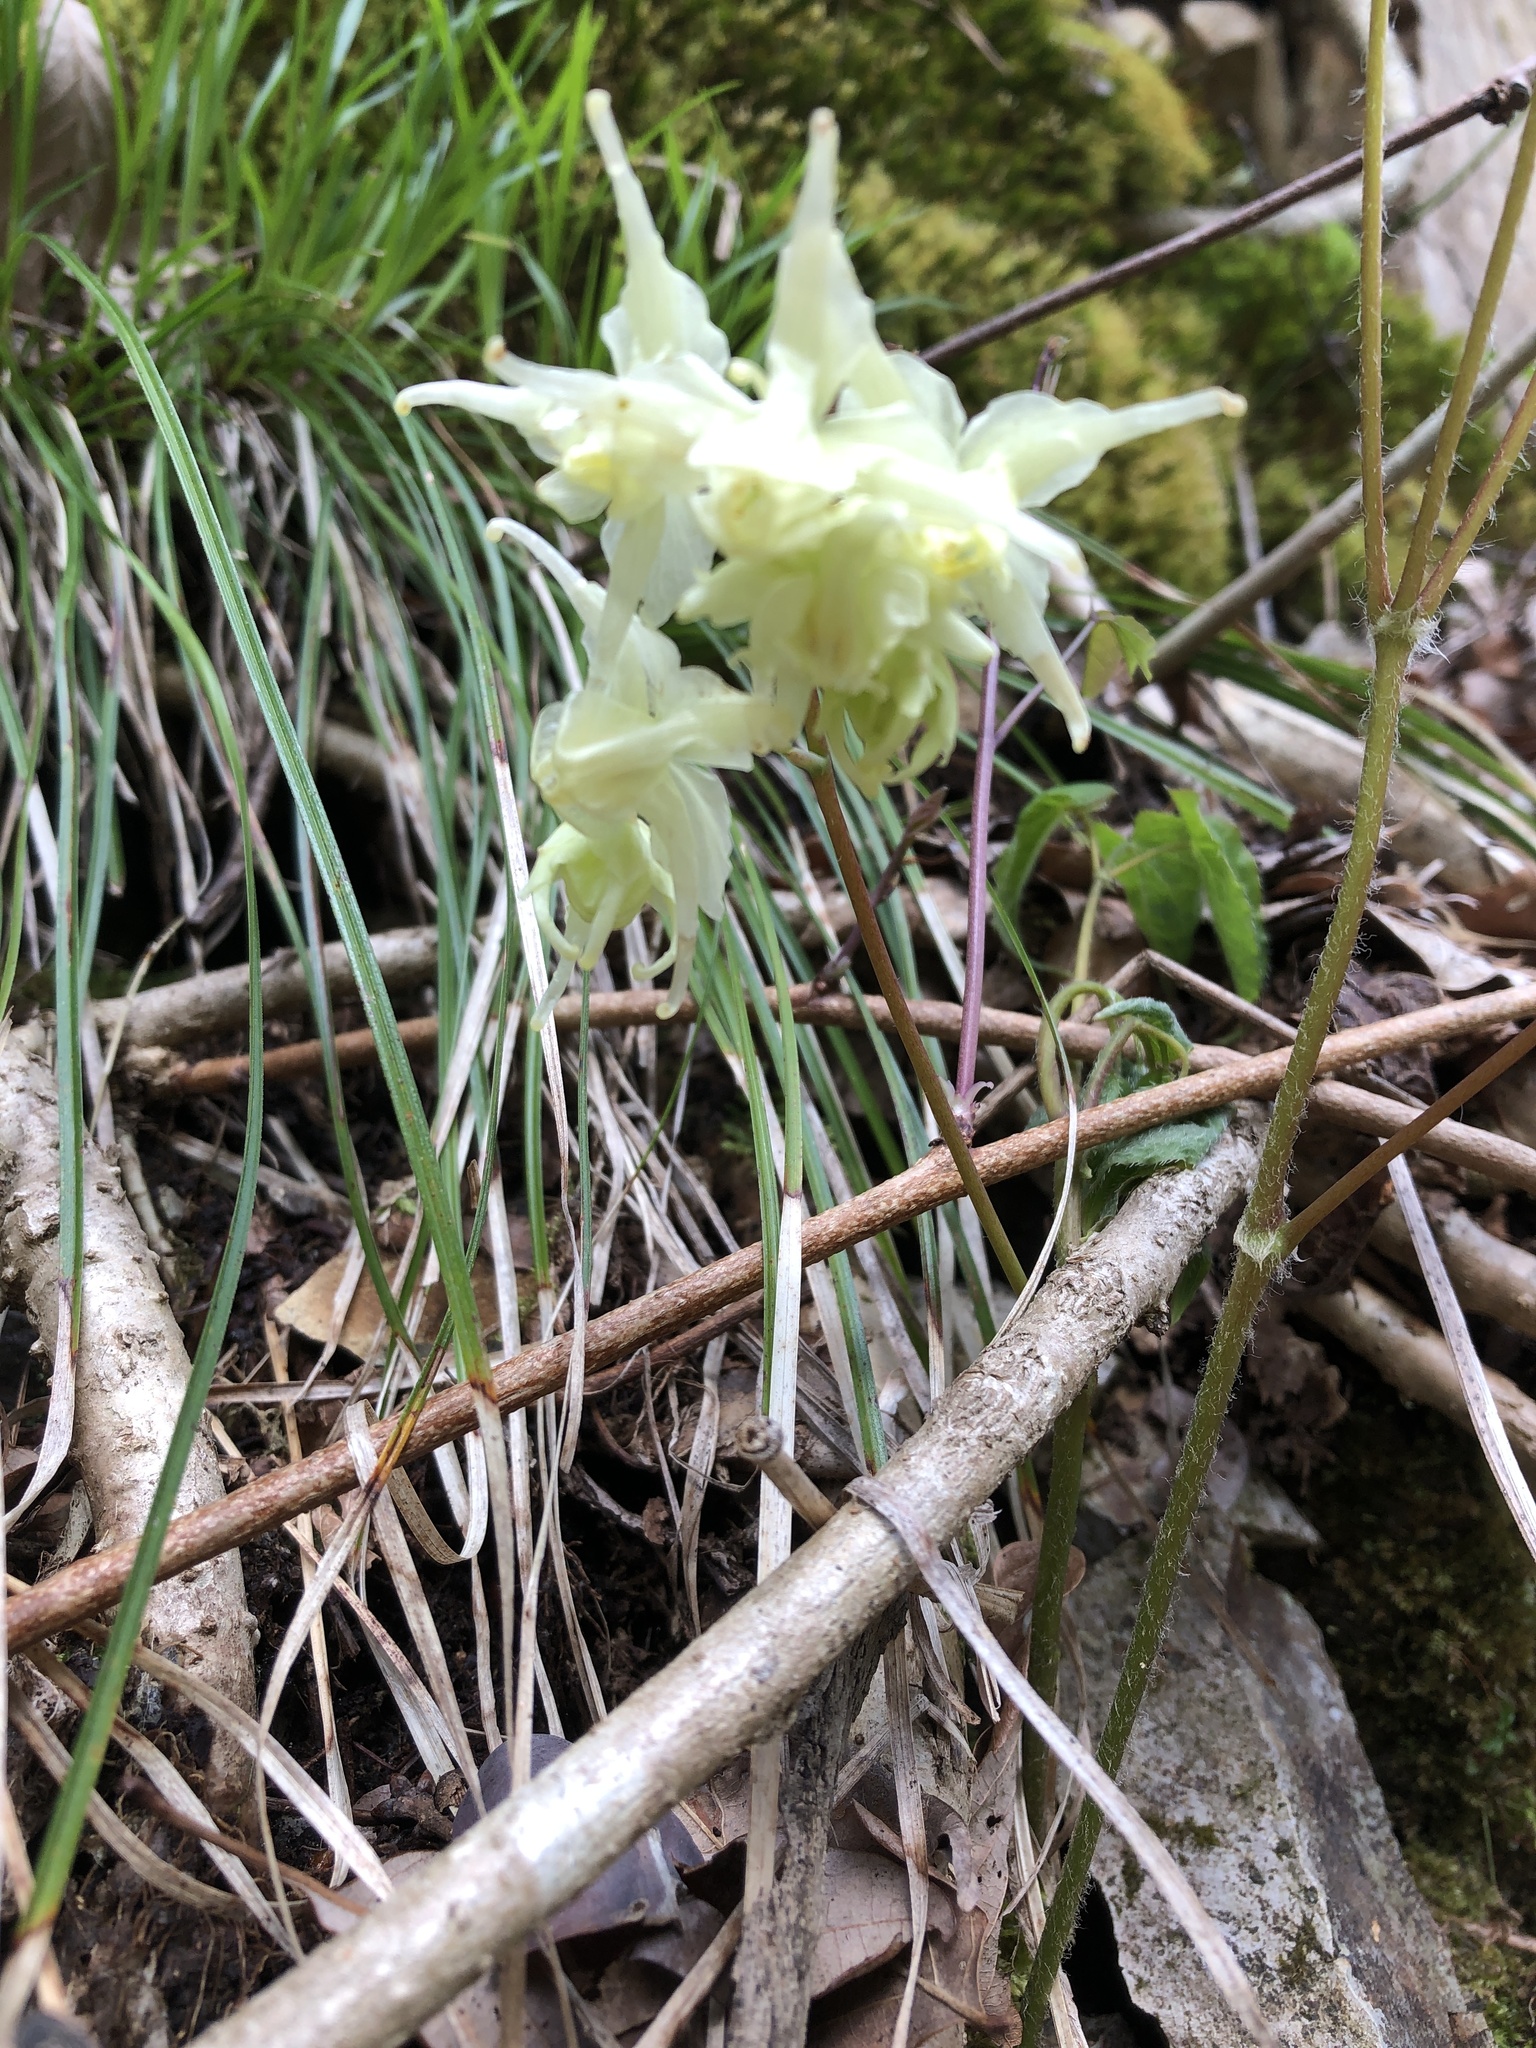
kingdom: Plantae
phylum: Tracheophyta
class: Magnoliopsida
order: Ranunculales
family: Berberidaceae
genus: Epimedium
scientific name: Epimedium koreanum
